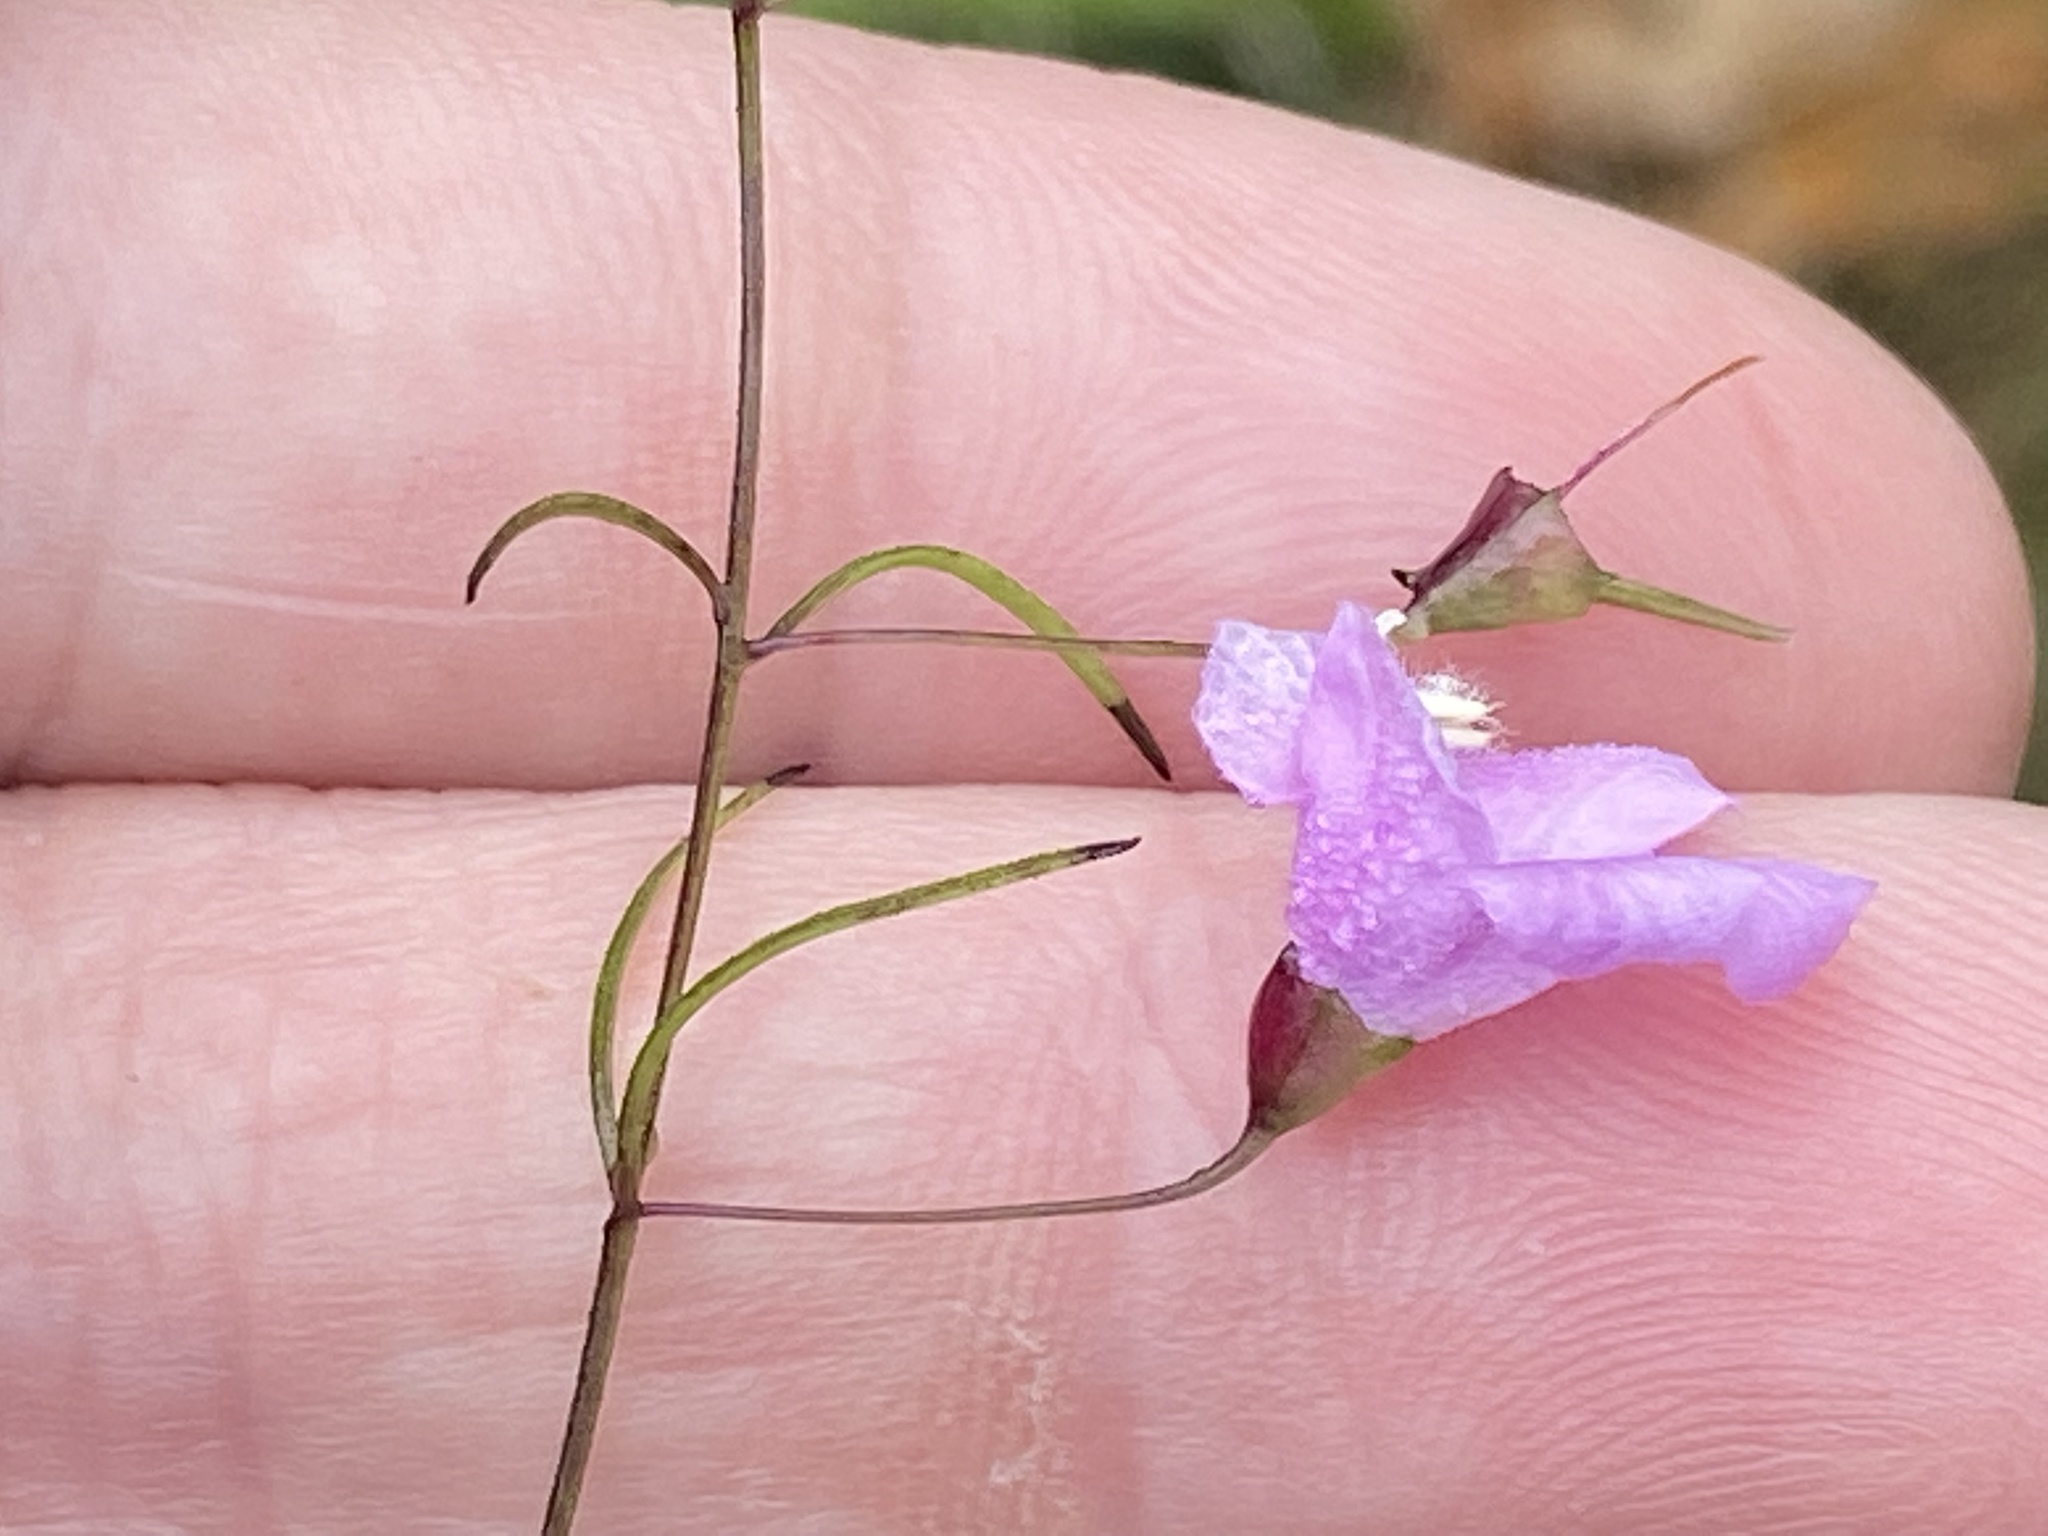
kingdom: Plantae
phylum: Tracheophyta
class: Magnoliopsida
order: Lamiales
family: Orobanchaceae
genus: Agalinis
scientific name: Agalinis tenuifolia
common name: Slender agalinis
